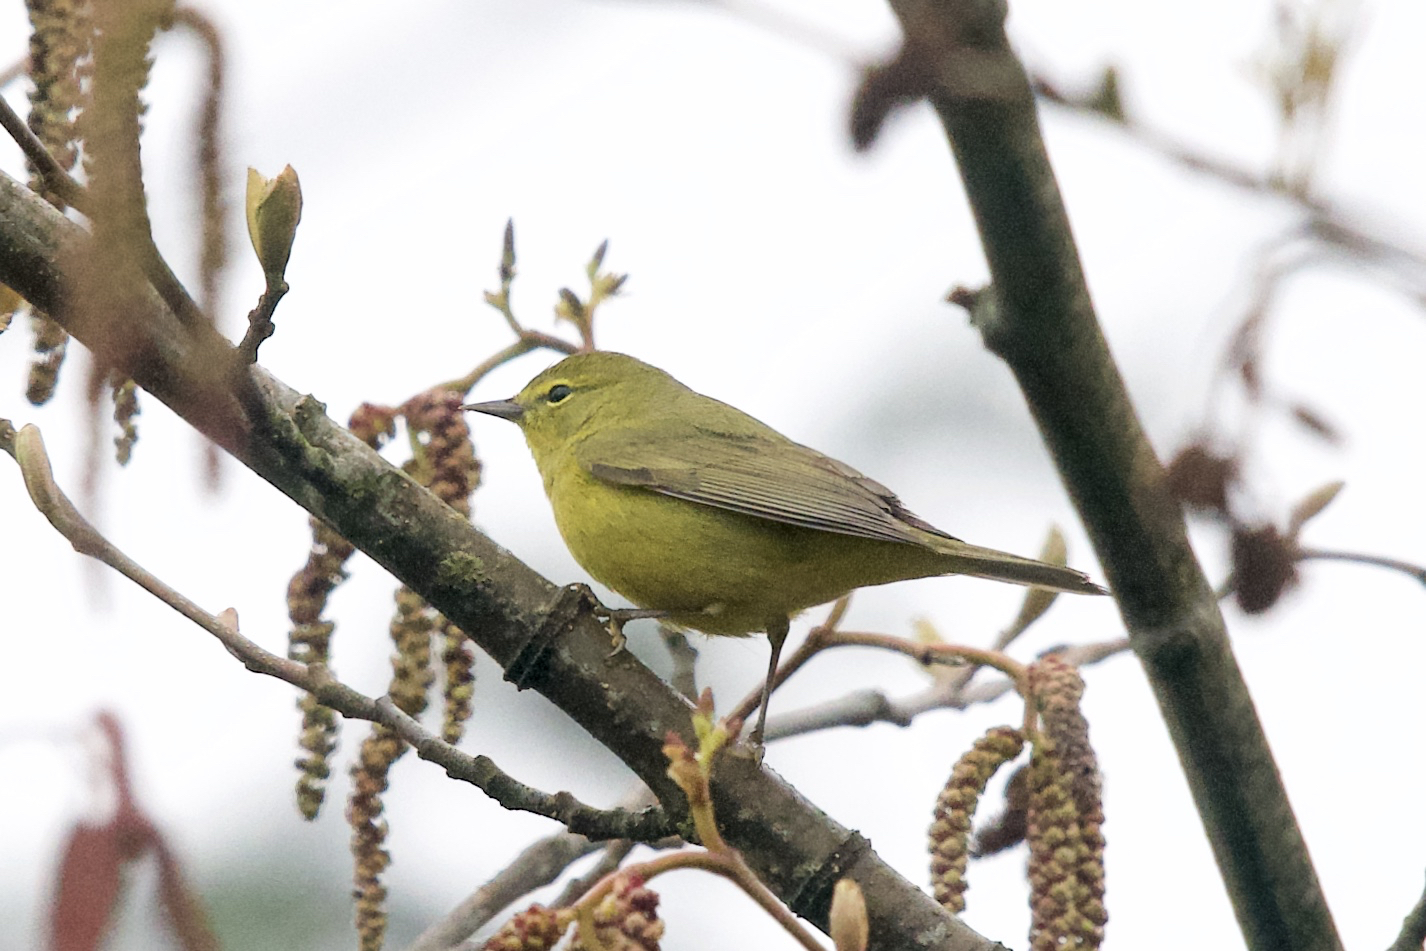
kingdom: Animalia
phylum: Chordata
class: Aves
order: Passeriformes
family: Parulidae
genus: Leiothlypis
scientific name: Leiothlypis celata
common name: Orange-crowned warbler
